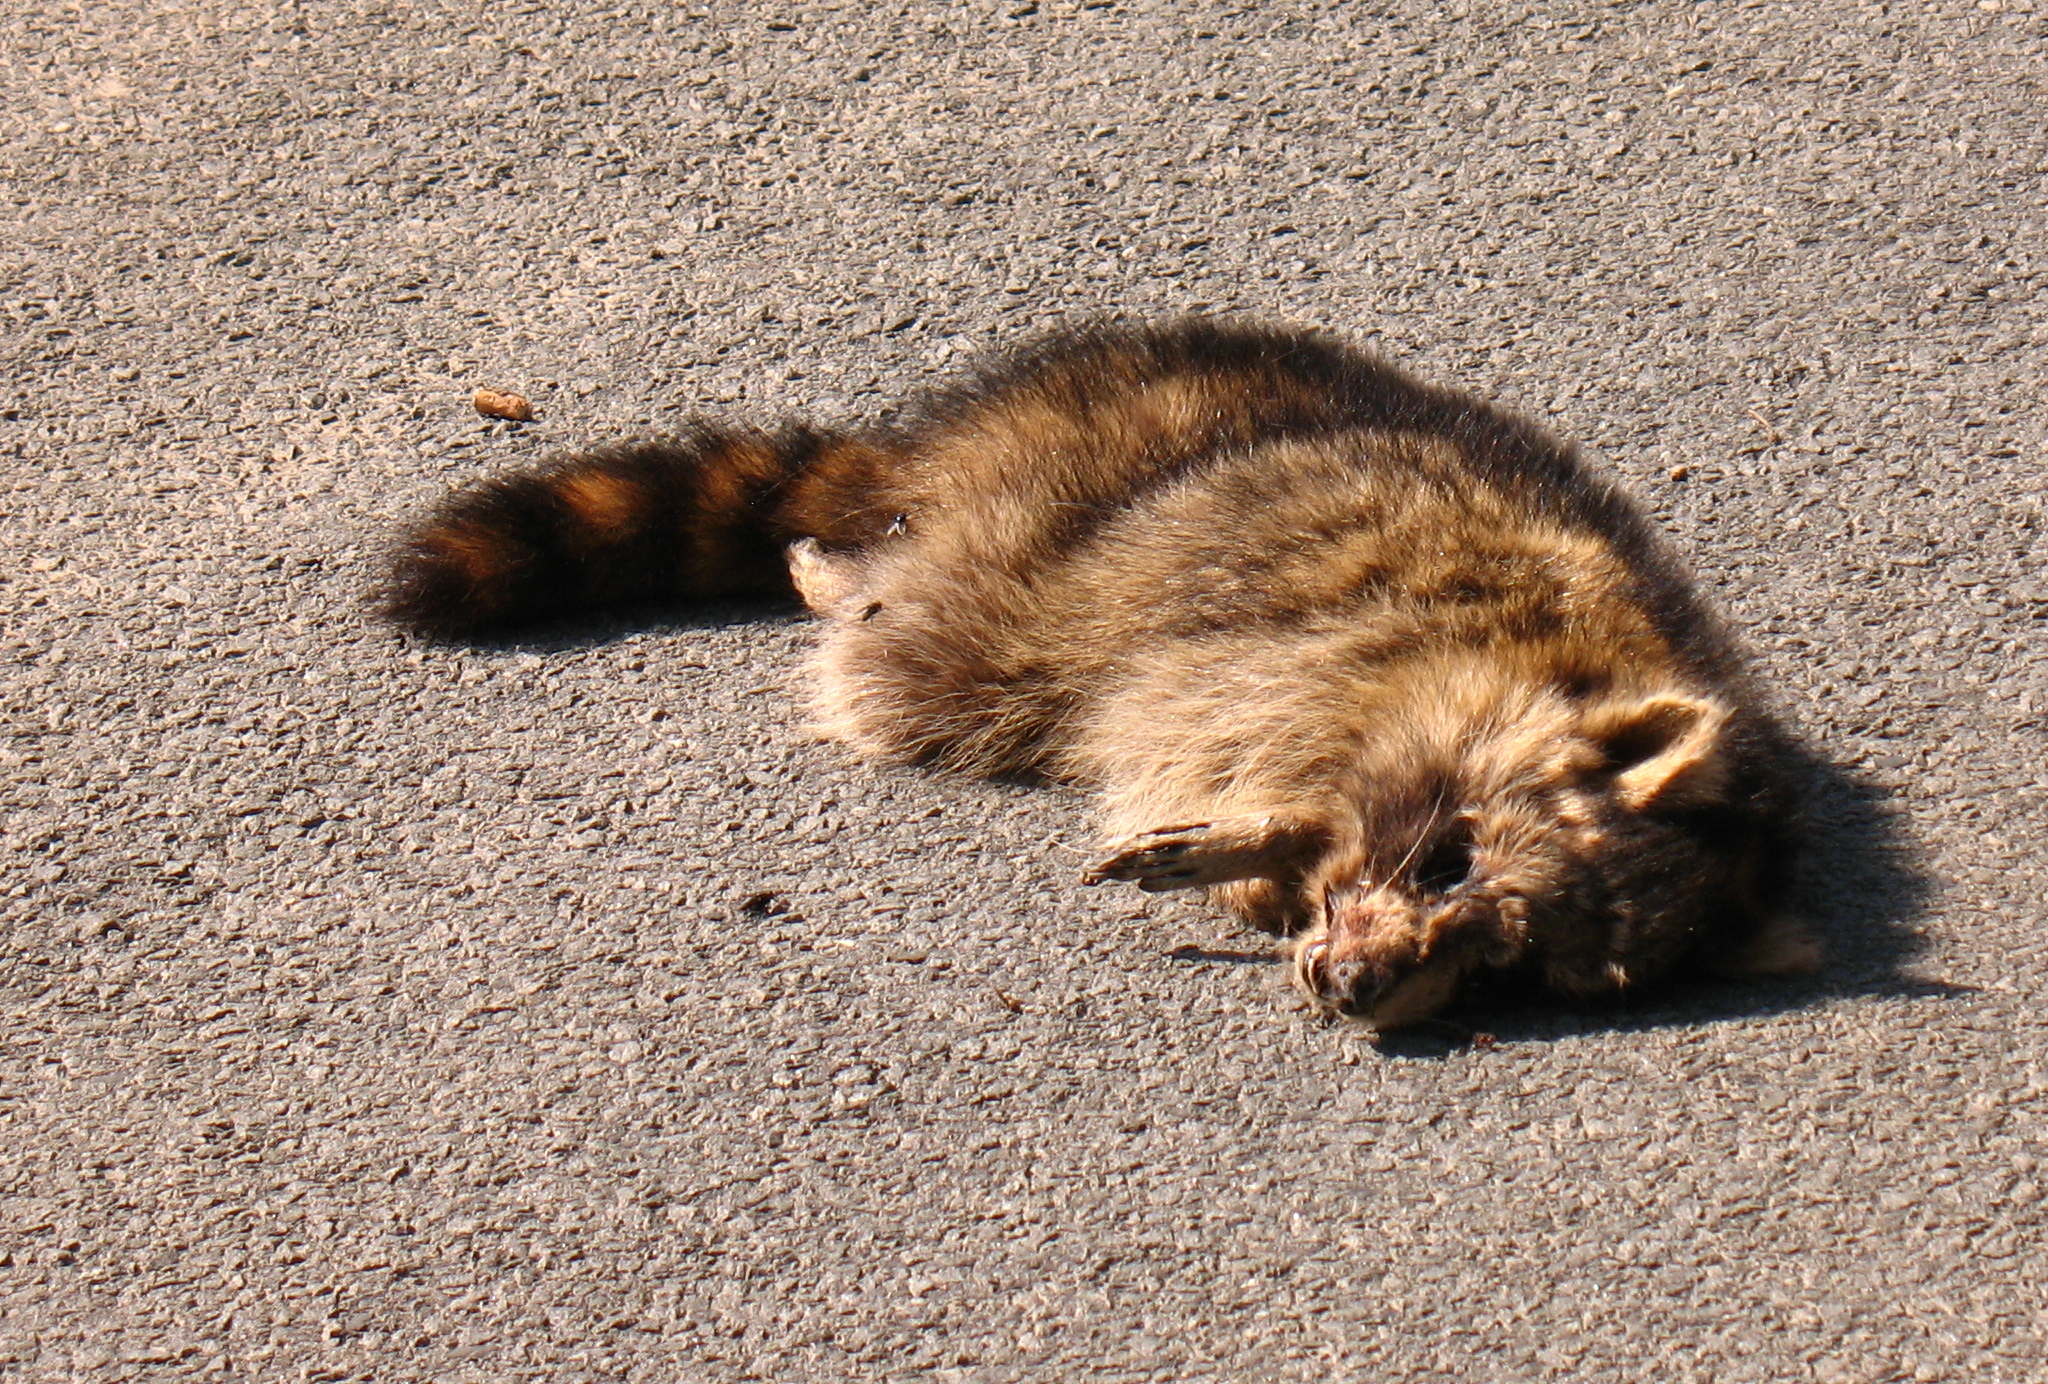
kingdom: Animalia
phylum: Chordata
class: Mammalia
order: Carnivora
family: Procyonidae
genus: Procyon
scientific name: Procyon lotor
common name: Raccoon
